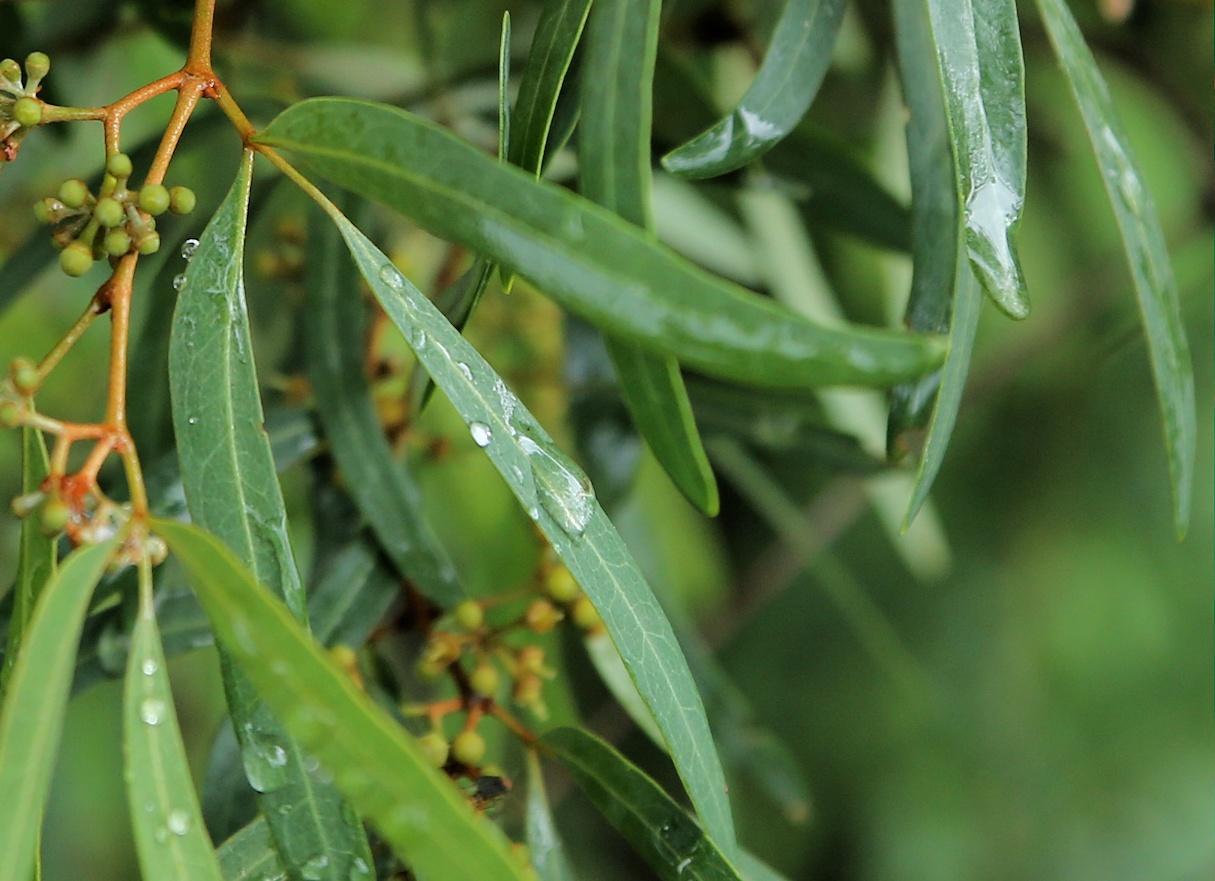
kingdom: Plantae
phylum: Tracheophyta
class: Magnoliopsida
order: Vitales
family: Vitaceae
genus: Rhoicissus
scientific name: Rhoicissus revoilii
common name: Bushveld grape
